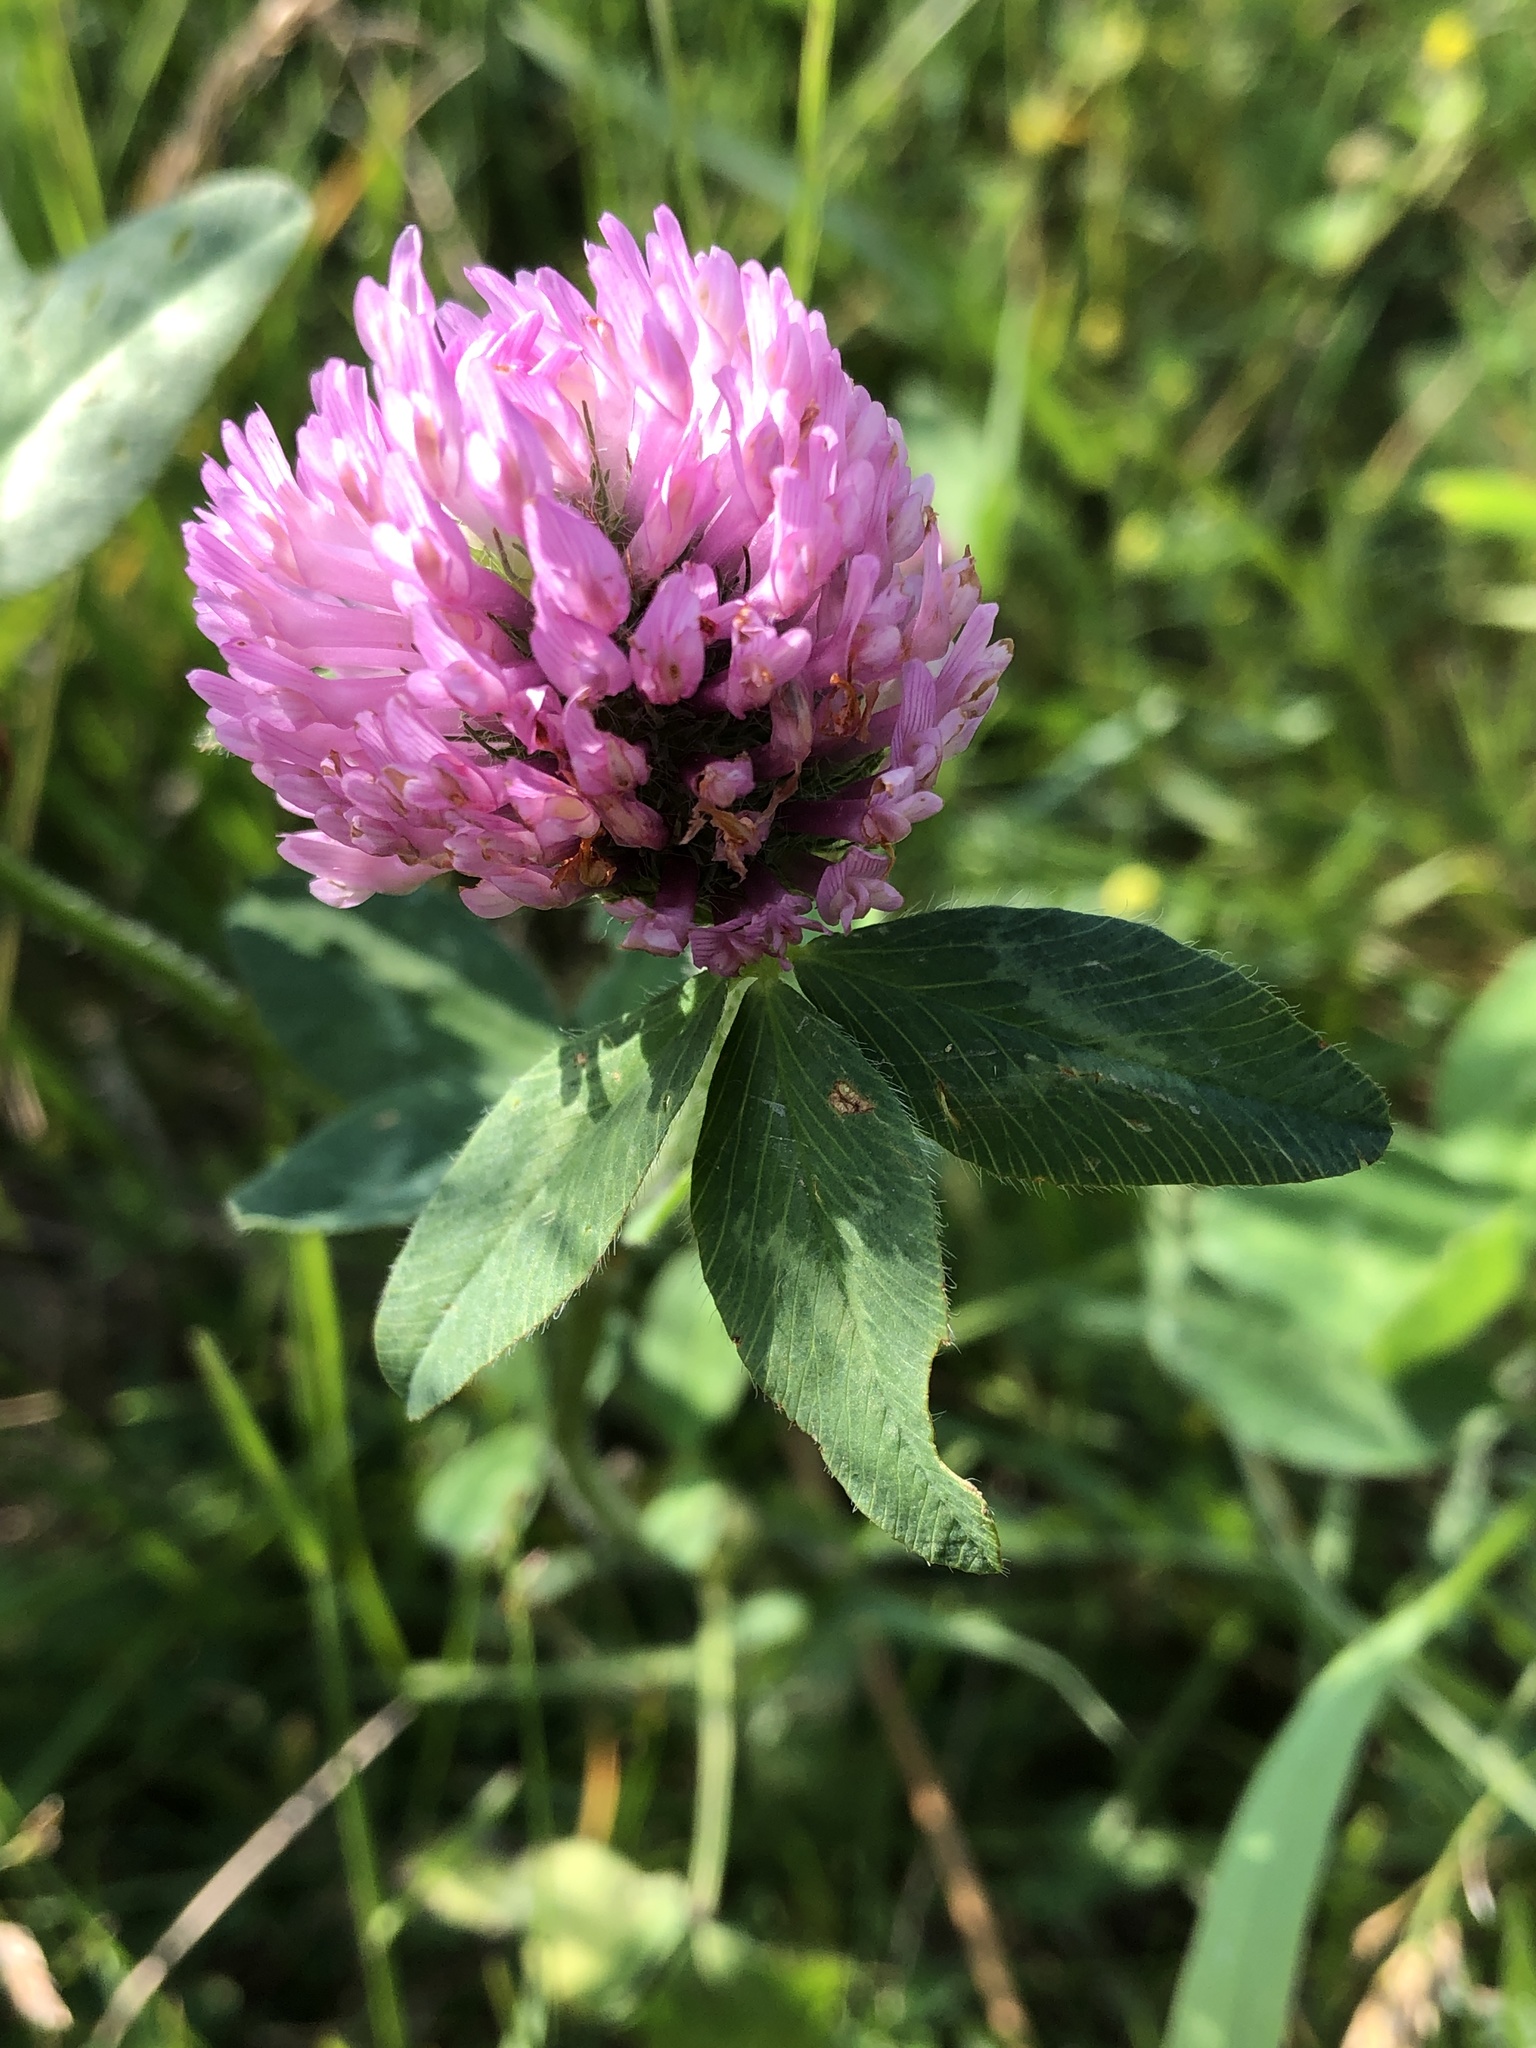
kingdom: Plantae
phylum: Tracheophyta
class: Magnoliopsida
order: Fabales
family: Fabaceae
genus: Trifolium
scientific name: Trifolium pratense
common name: Red clover
